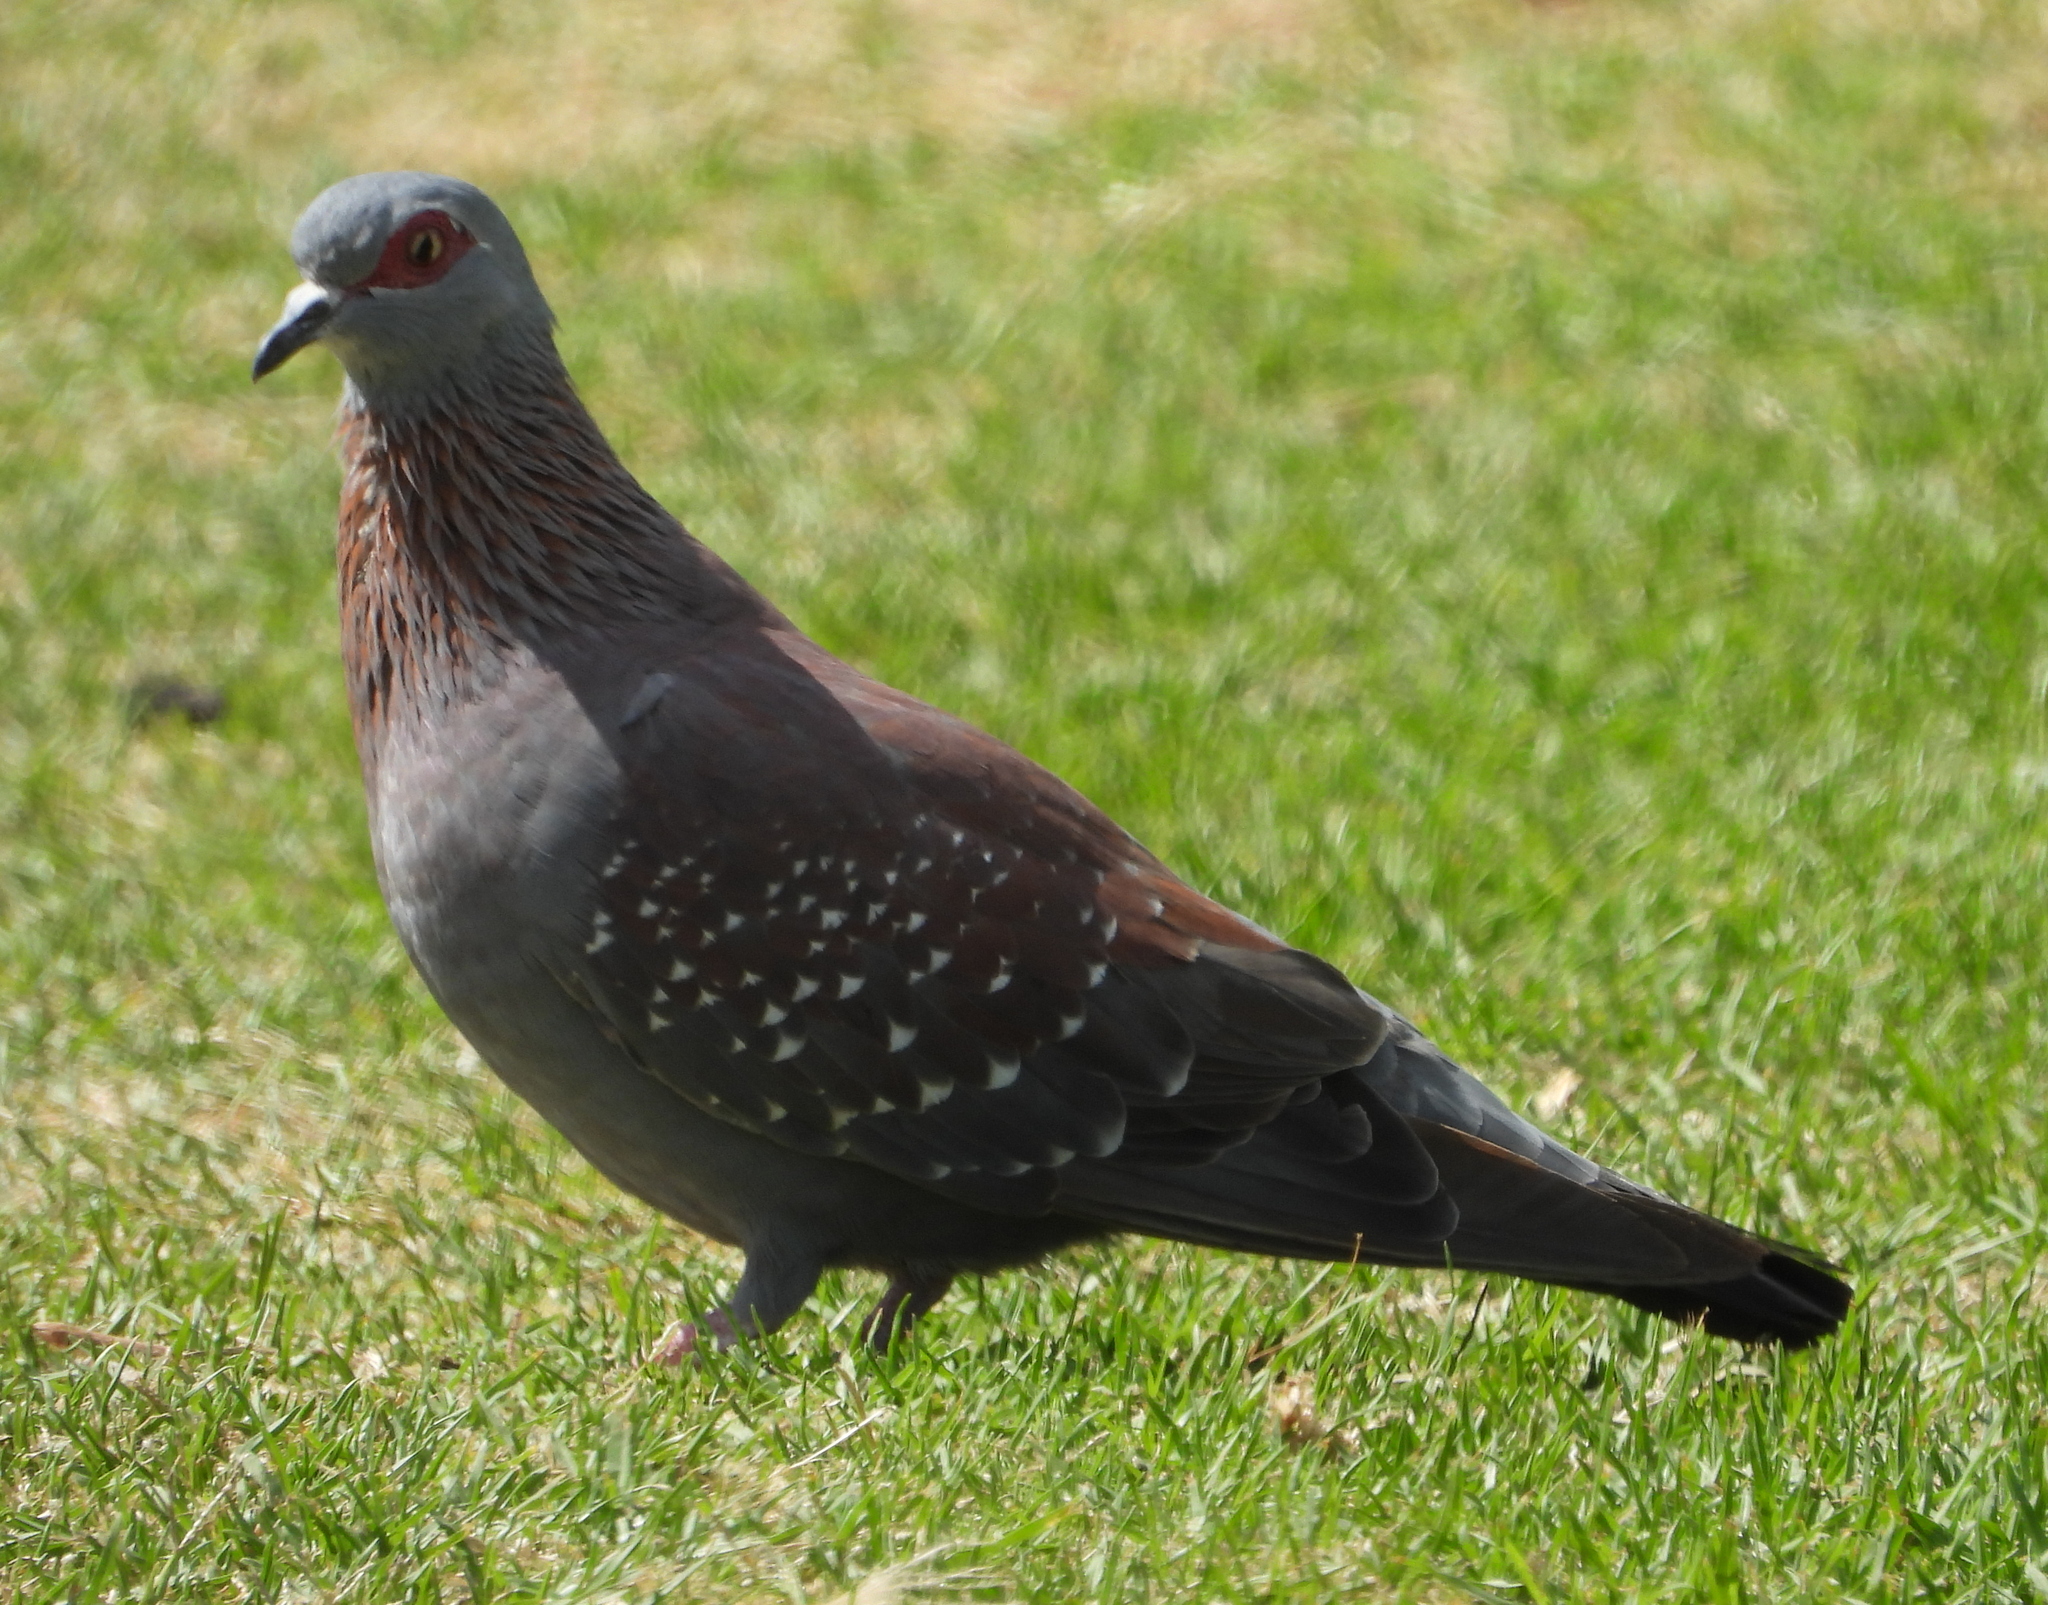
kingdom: Animalia
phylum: Chordata
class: Aves
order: Columbiformes
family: Columbidae
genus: Columba
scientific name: Columba guinea
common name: Speckled pigeon
